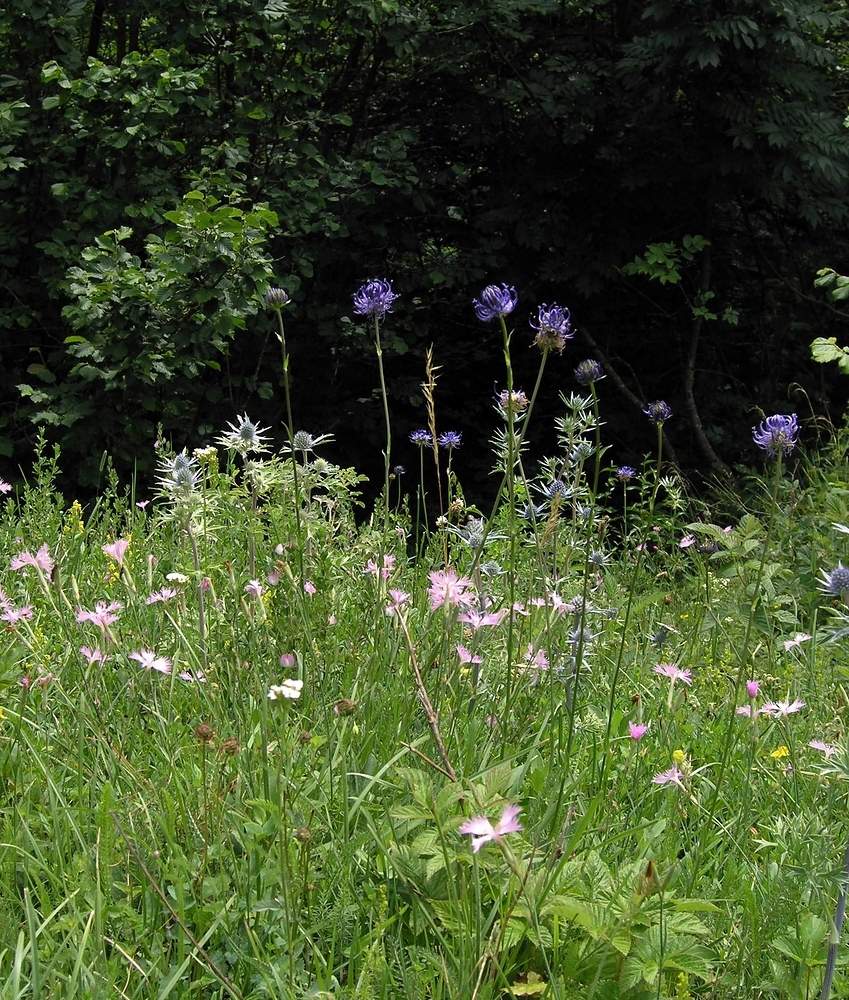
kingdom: Plantae
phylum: Tracheophyta
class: Magnoliopsida
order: Asterales
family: Campanulaceae
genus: Phyteuma
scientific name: Phyteuma orbiculare
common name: Round-headed rampion
